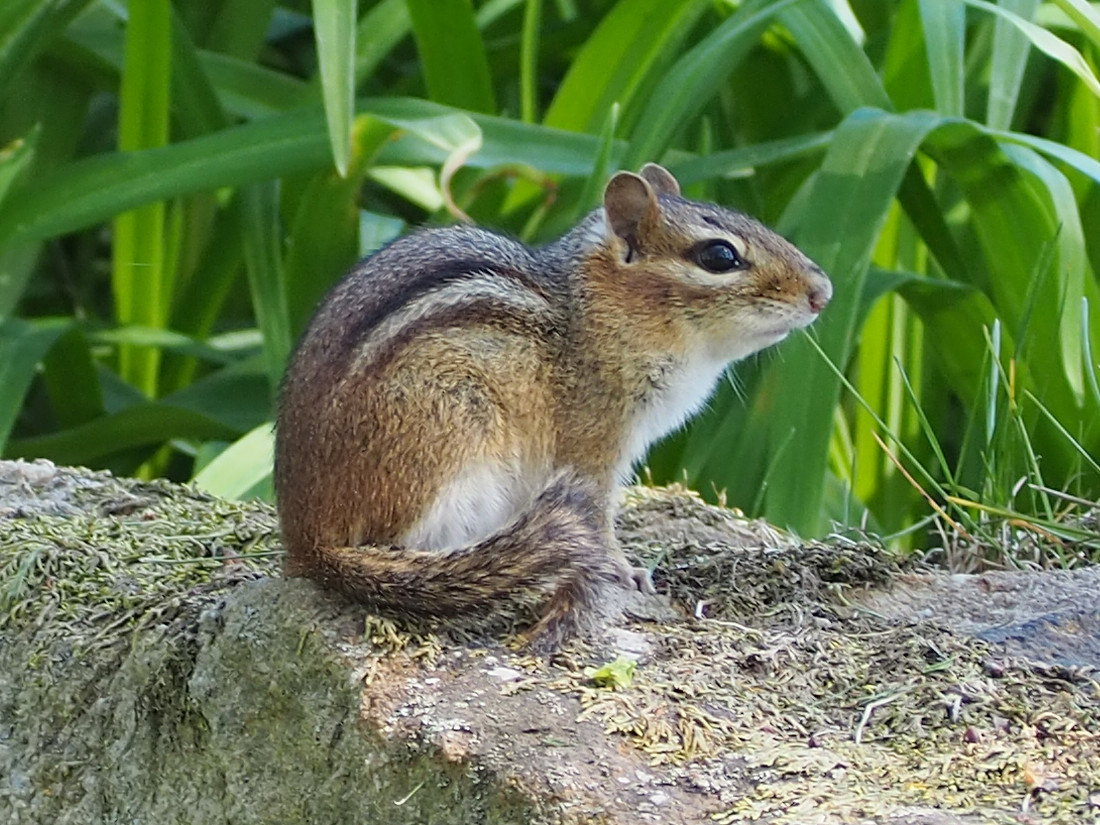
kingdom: Animalia
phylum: Chordata
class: Mammalia
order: Rodentia
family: Sciuridae
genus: Tamias
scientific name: Tamias striatus
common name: Eastern chipmunk
